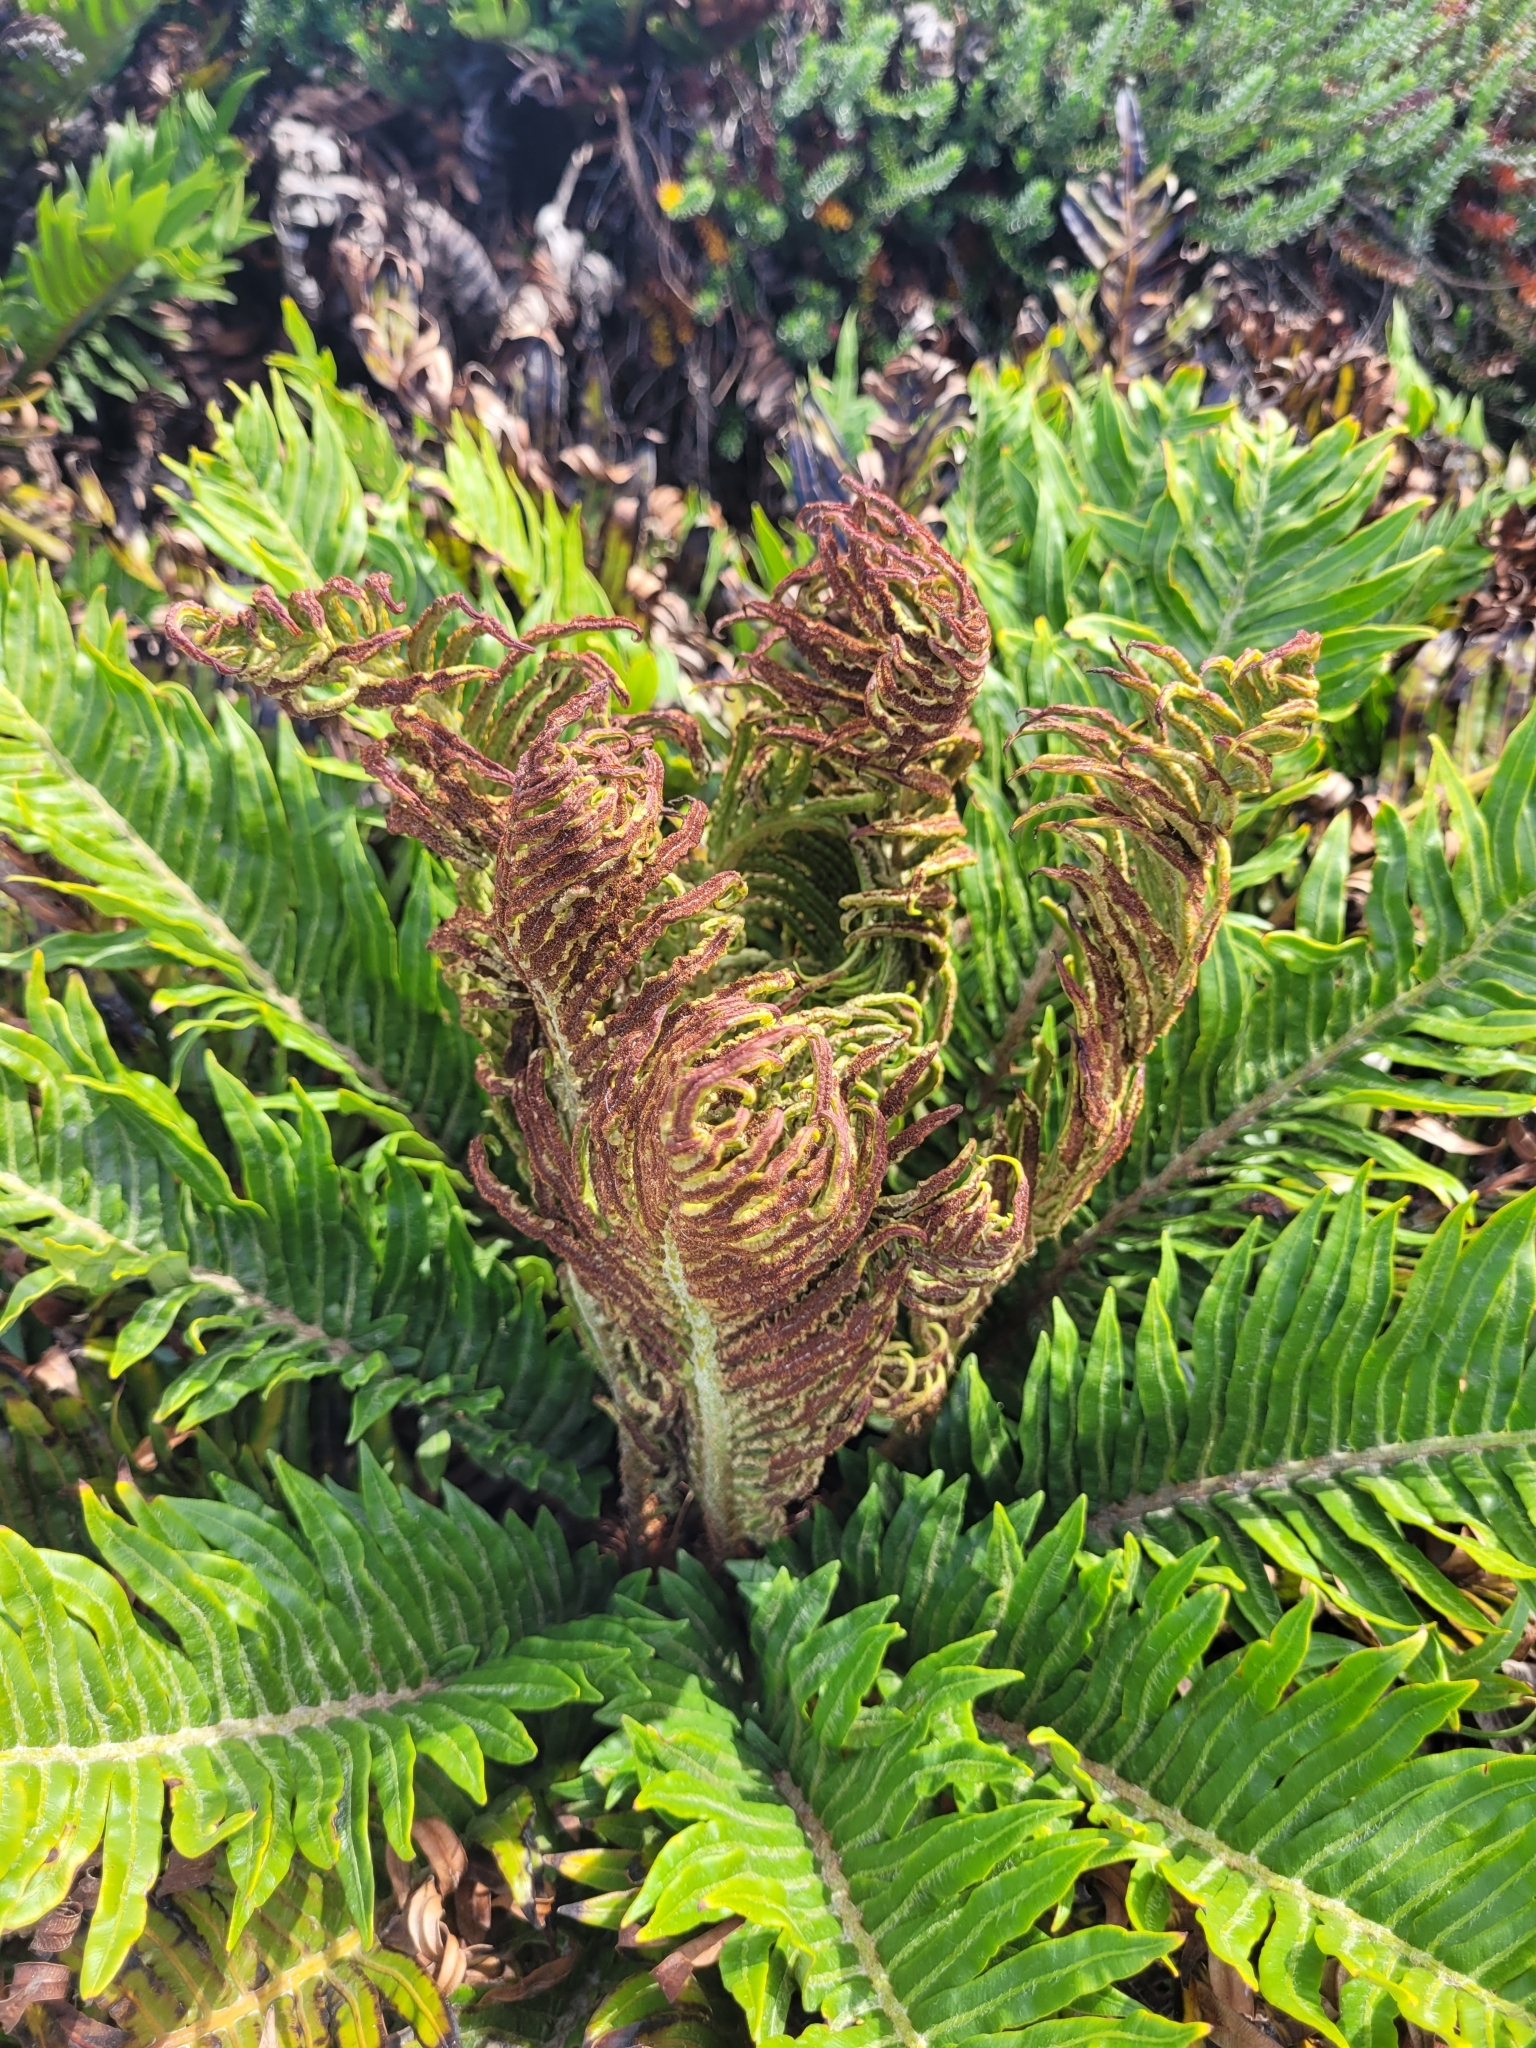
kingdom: Plantae
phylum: Tracheophyta
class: Polypodiopsida
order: Polypodiales
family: Blechnaceae
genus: Lomariocycas
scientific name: Lomariocycas magellanica
